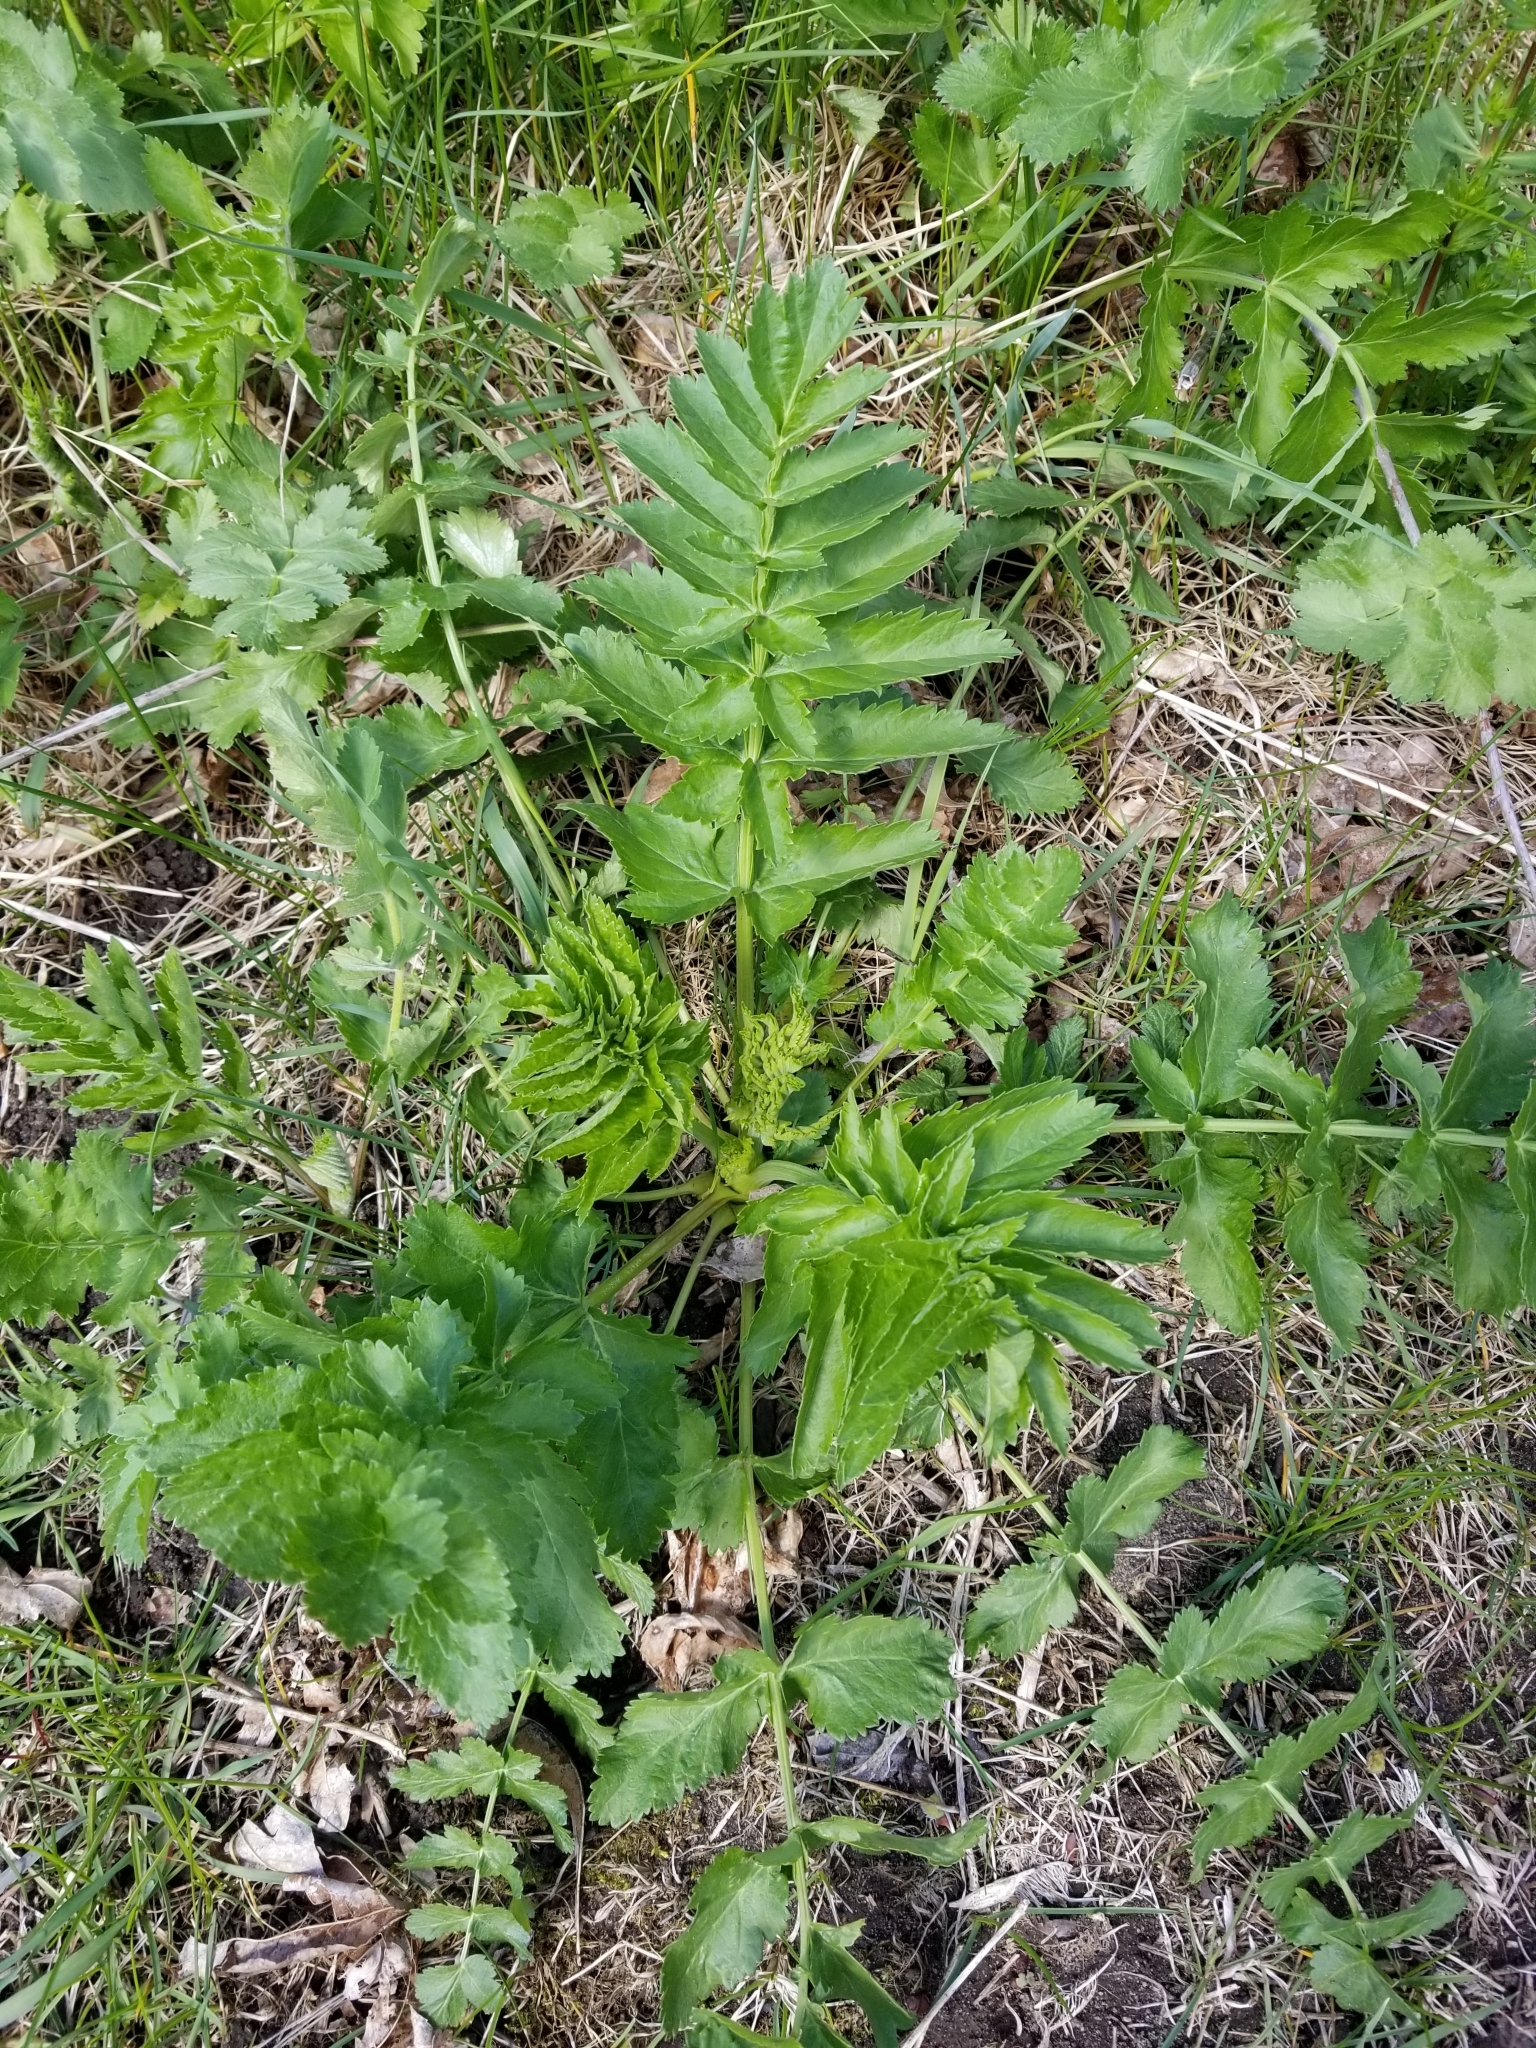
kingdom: Plantae
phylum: Tracheophyta
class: Magnoliopsida
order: Apiales
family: Apiaceae
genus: Pastinaca
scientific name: Pastinaca sativa
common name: Wild parsnip
